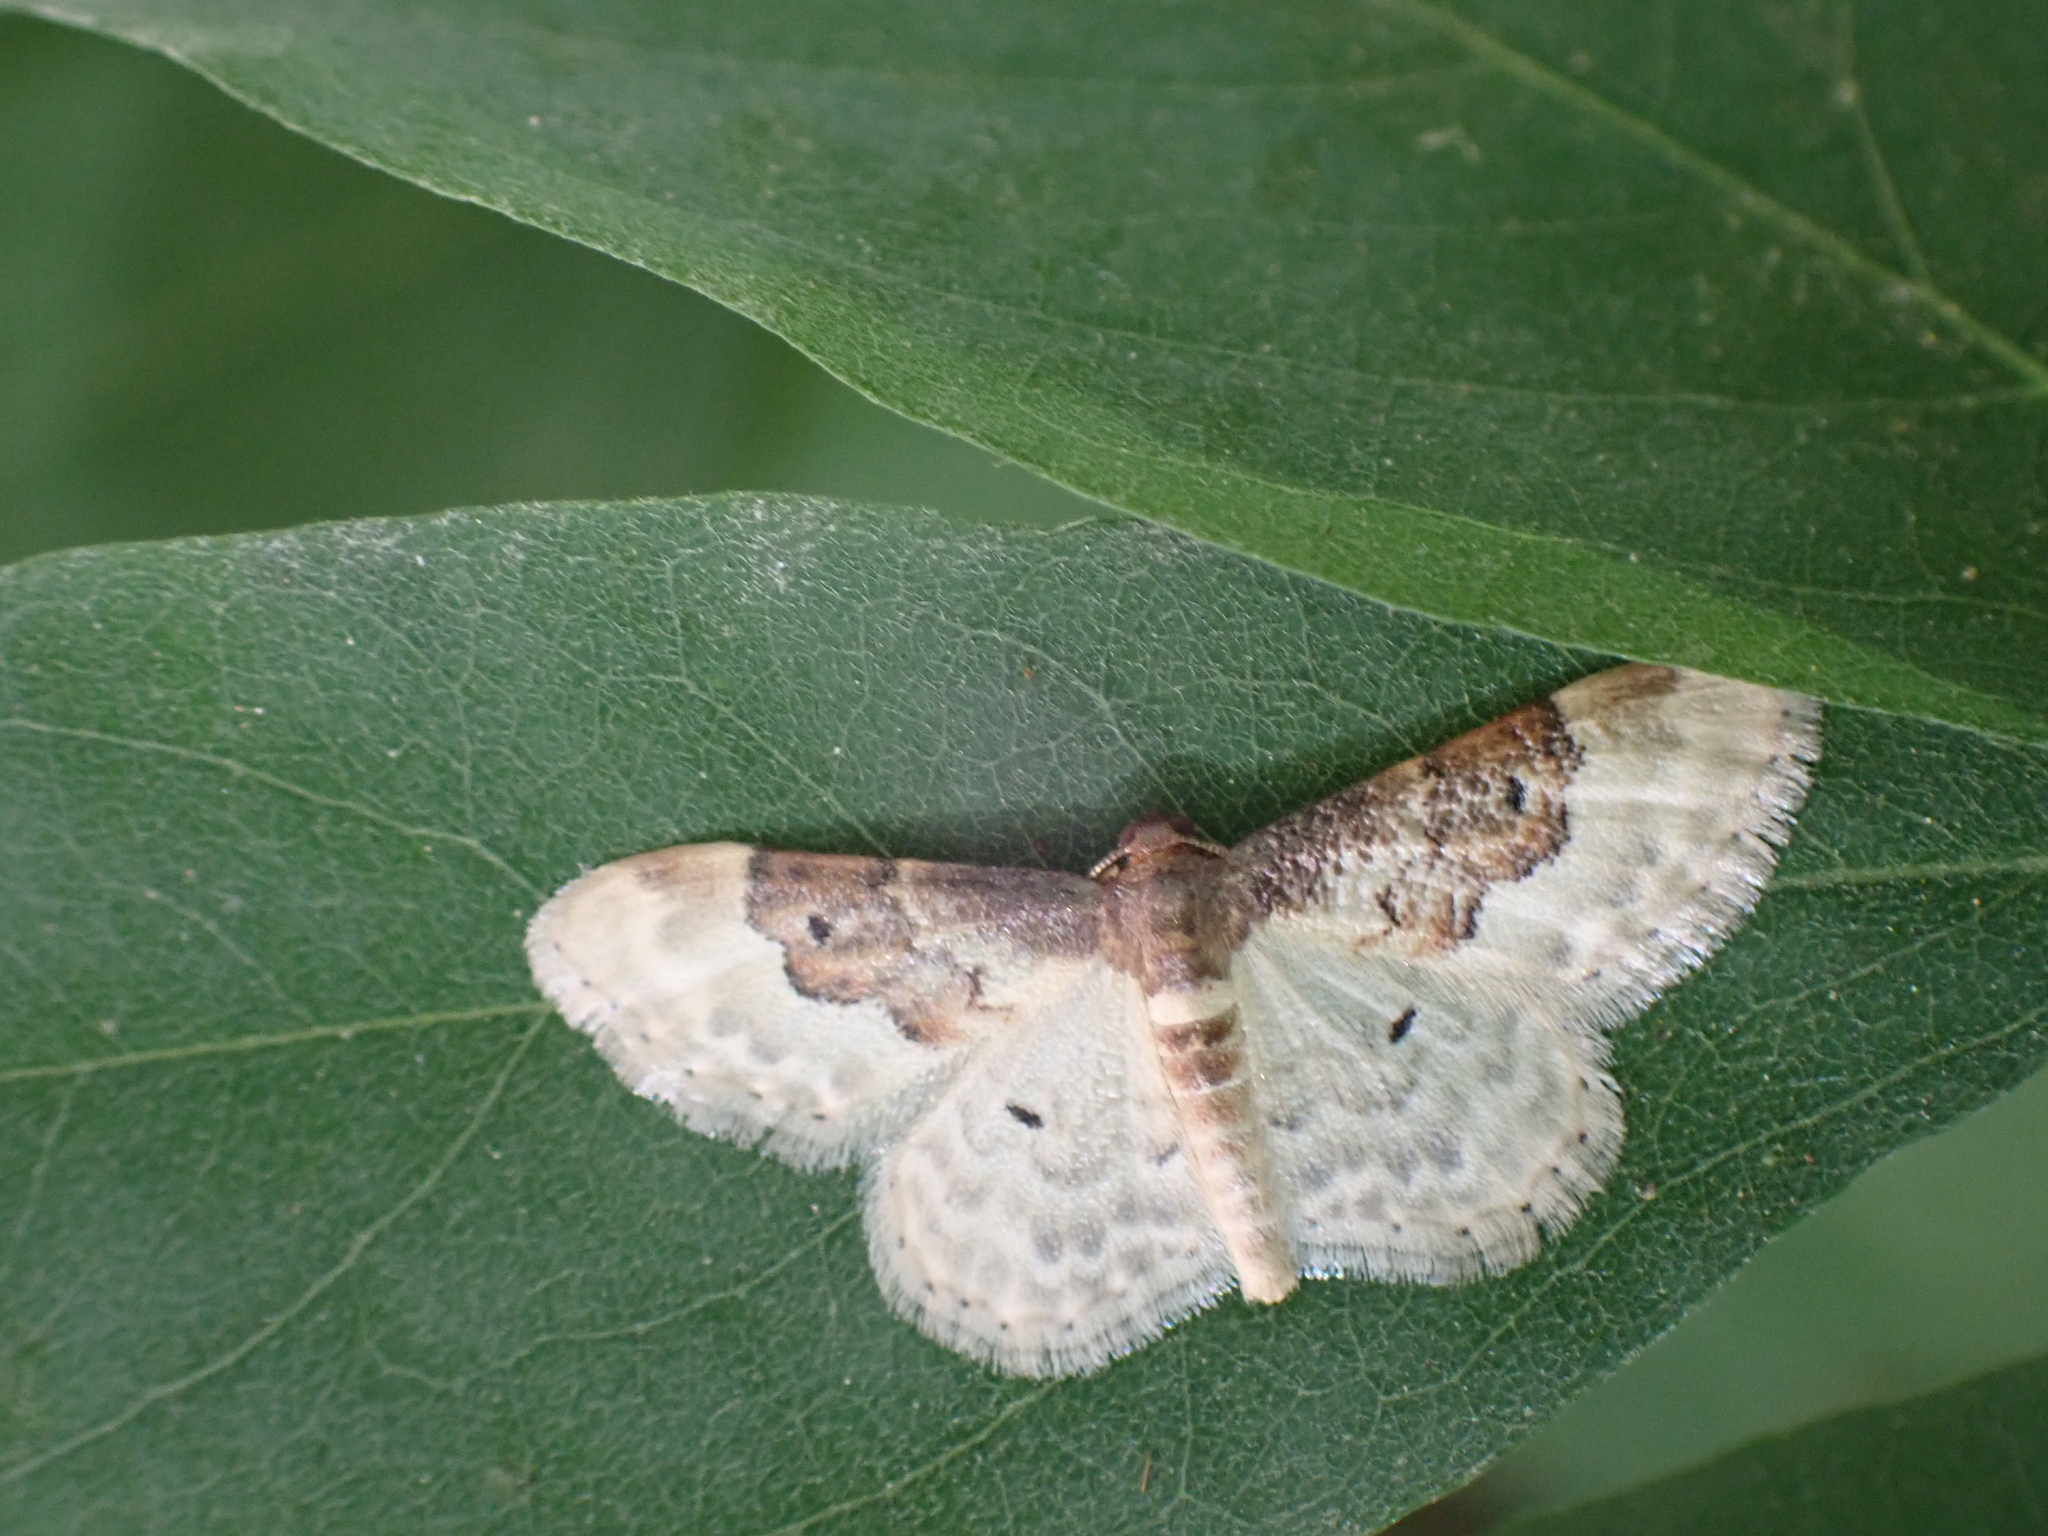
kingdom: Animalia
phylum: Arthropoda
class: Insecta
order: Lepidoptera
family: Geometridae
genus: Idaea
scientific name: Idaea rusticata
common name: Least carpet
